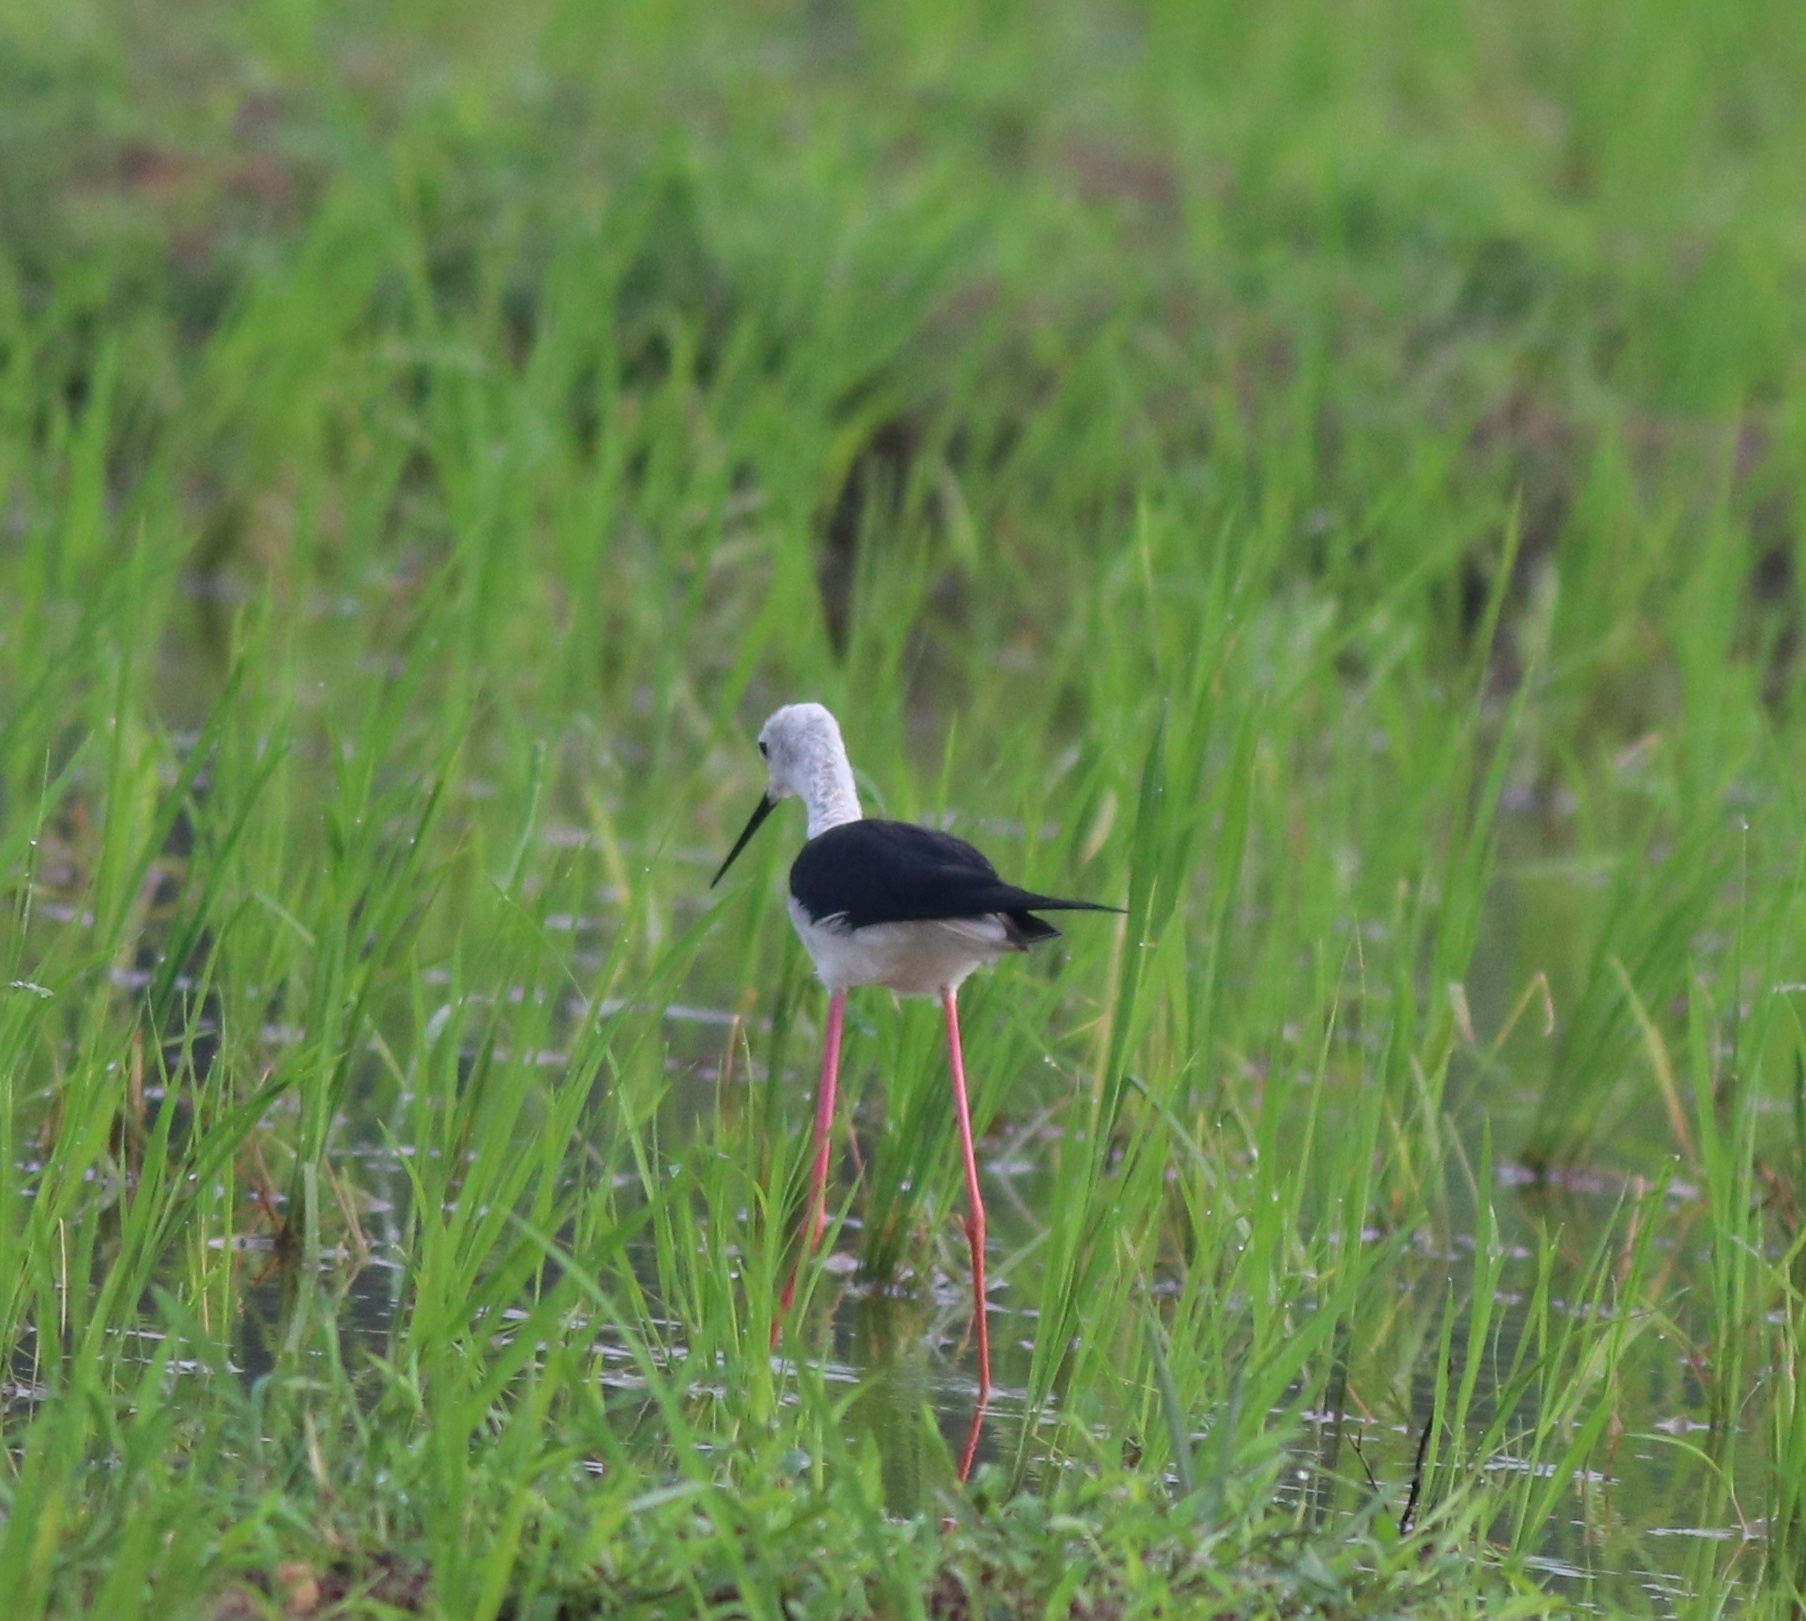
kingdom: Animalia
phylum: Chordata
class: Aves
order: Charadriiformes
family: Recurvirostridae
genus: Himantopus
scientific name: Himantopus himantopus
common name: Black-winged stilt
